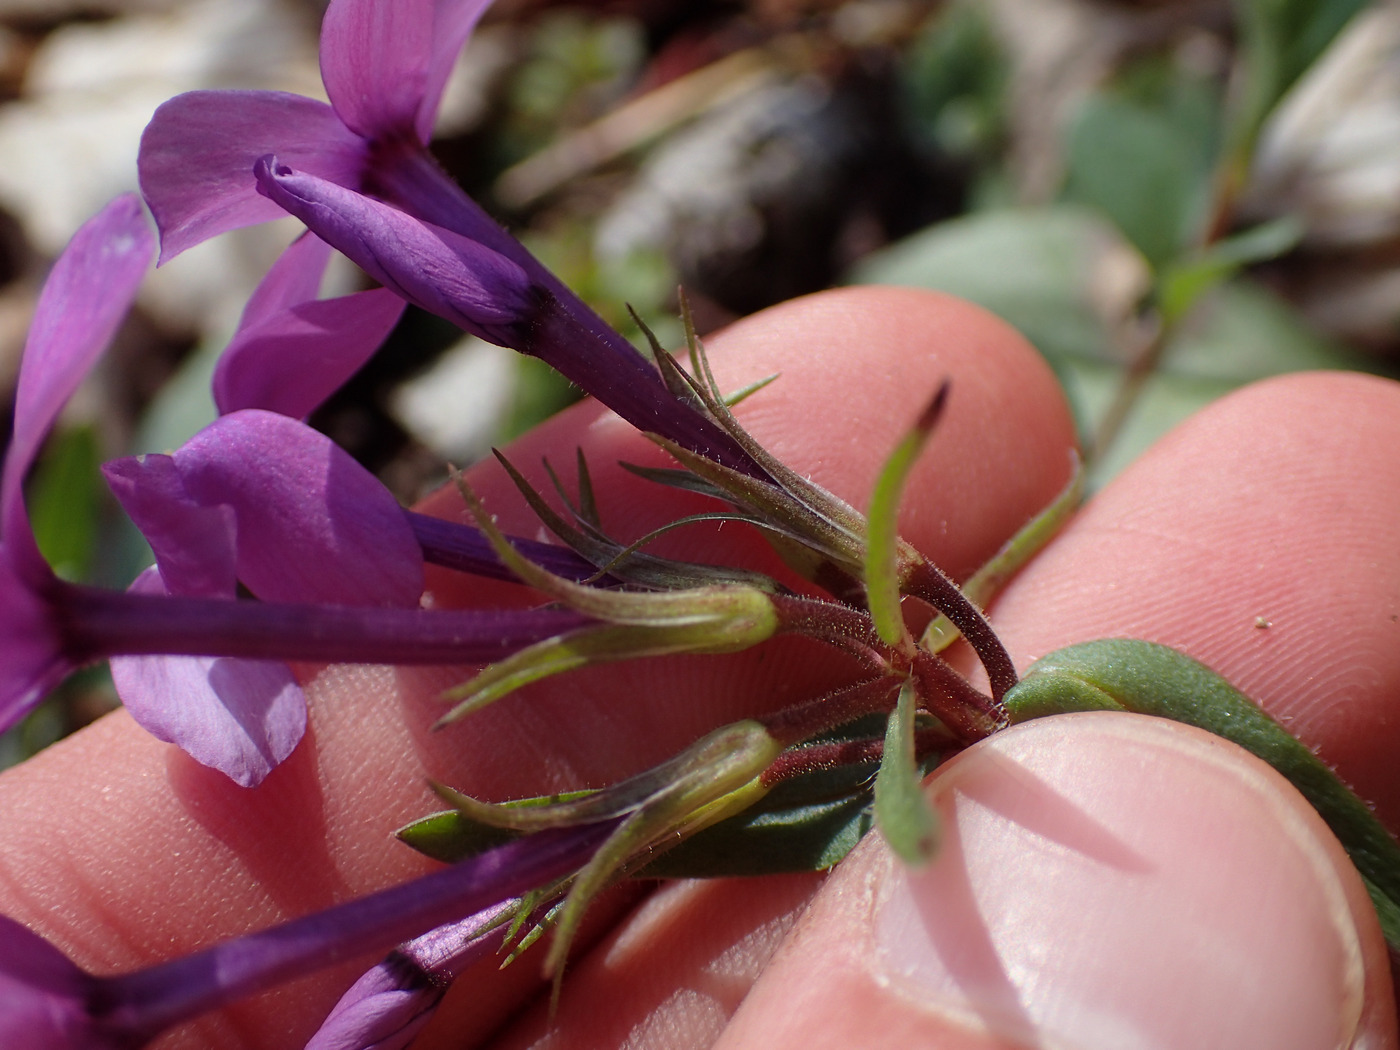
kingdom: Plantae
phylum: Tracheophyta
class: Magnoliopsida
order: Ericales
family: Polemoniaceae
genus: Phlox
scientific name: Phlox stolonifera
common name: Creeping phlox
